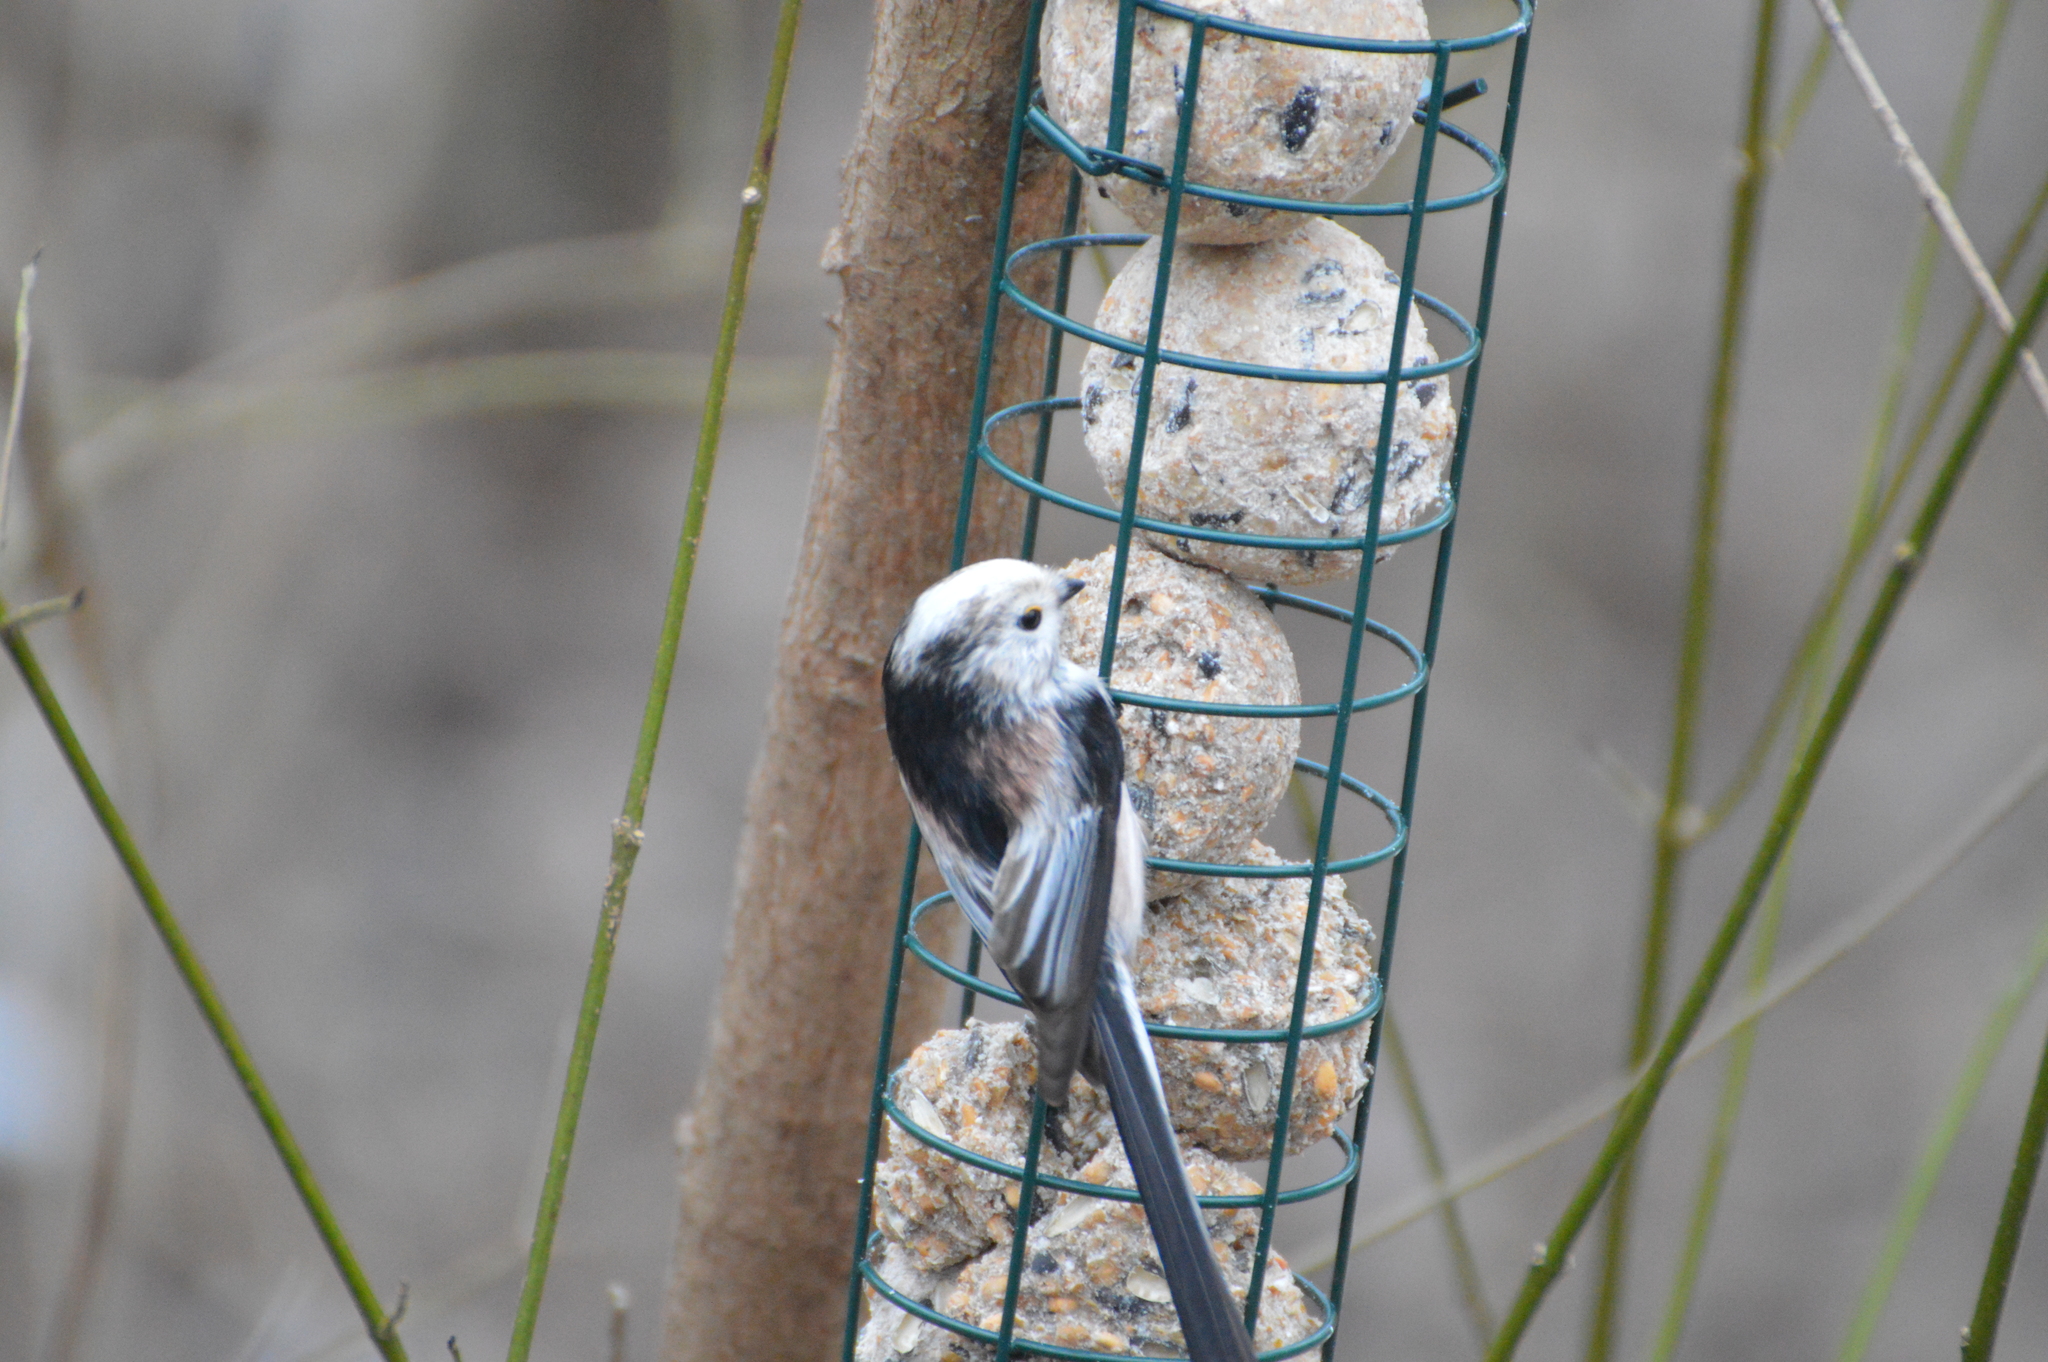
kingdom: Animalia
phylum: Chordata
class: Aves
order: Passeriformes
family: Aegithalidae
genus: Aegithalos
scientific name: Aegithalos caudatus
